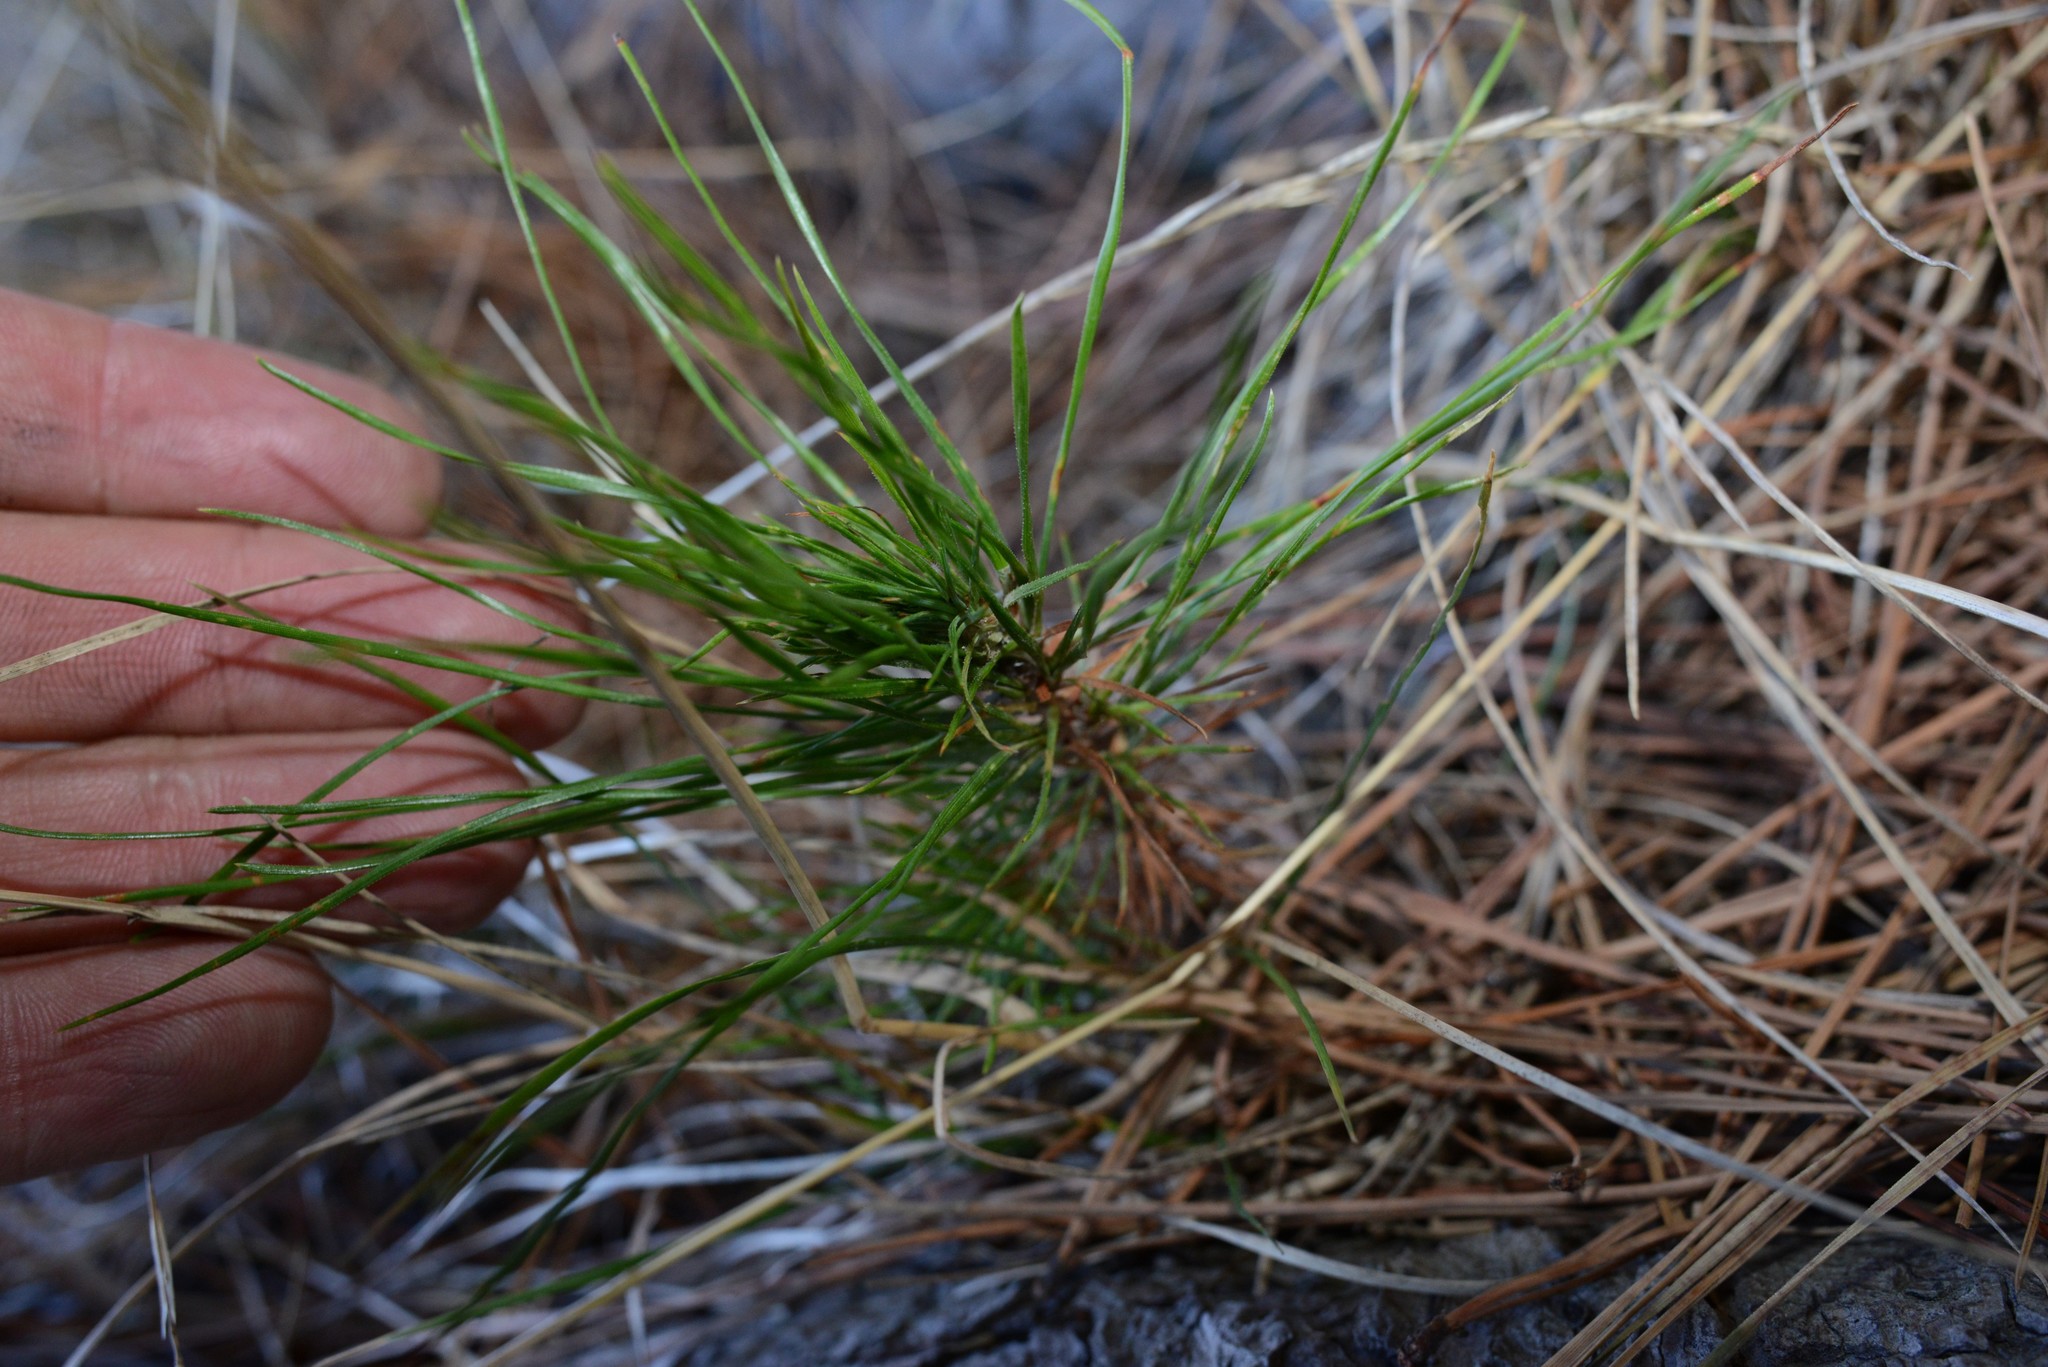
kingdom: Plantae
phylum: Tracheophyta
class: Pinopsida
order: Pinales
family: Pinaceae
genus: Pinus
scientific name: Pinus radiata
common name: Monterey pine
